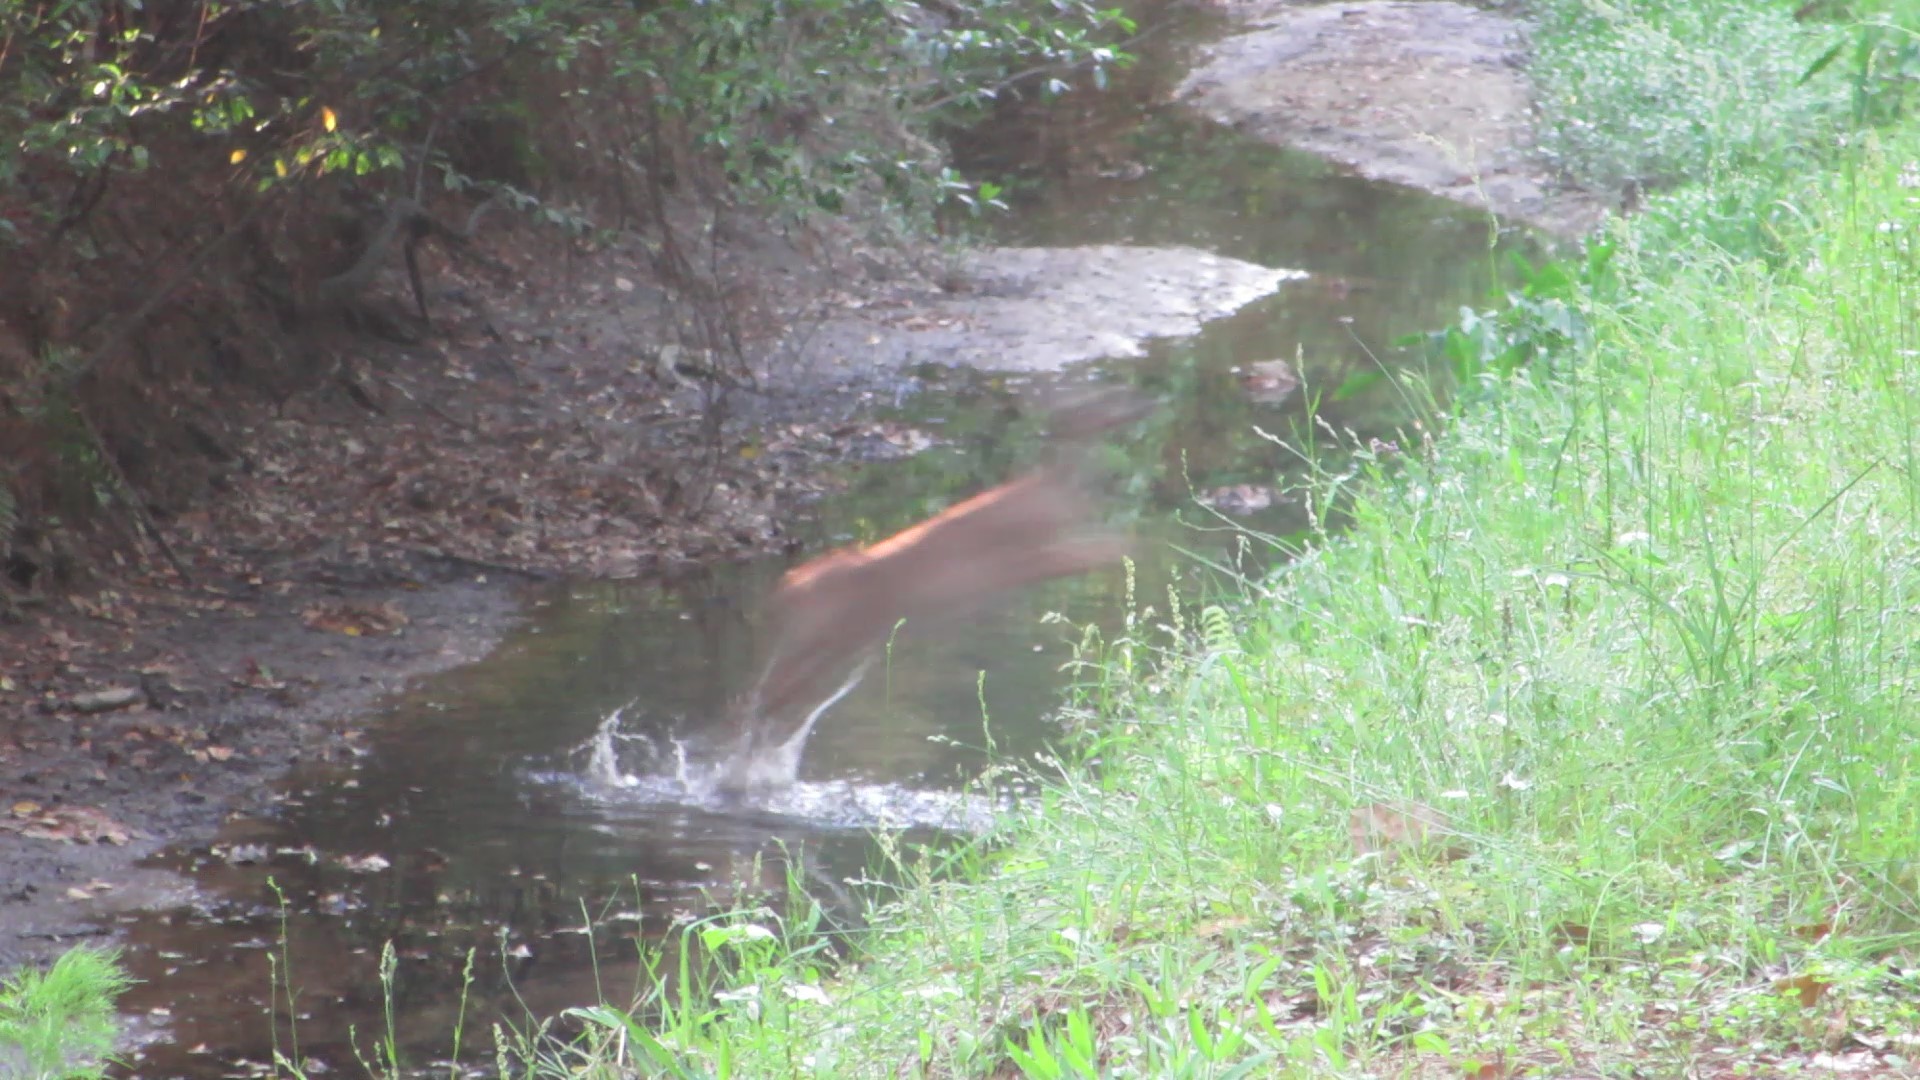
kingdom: Animalia
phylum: Chordata
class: Mammalia
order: Artiodactyla
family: Cervidae
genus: Odocoileus
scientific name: Odocoileus virginianus
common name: White-tailed deer
